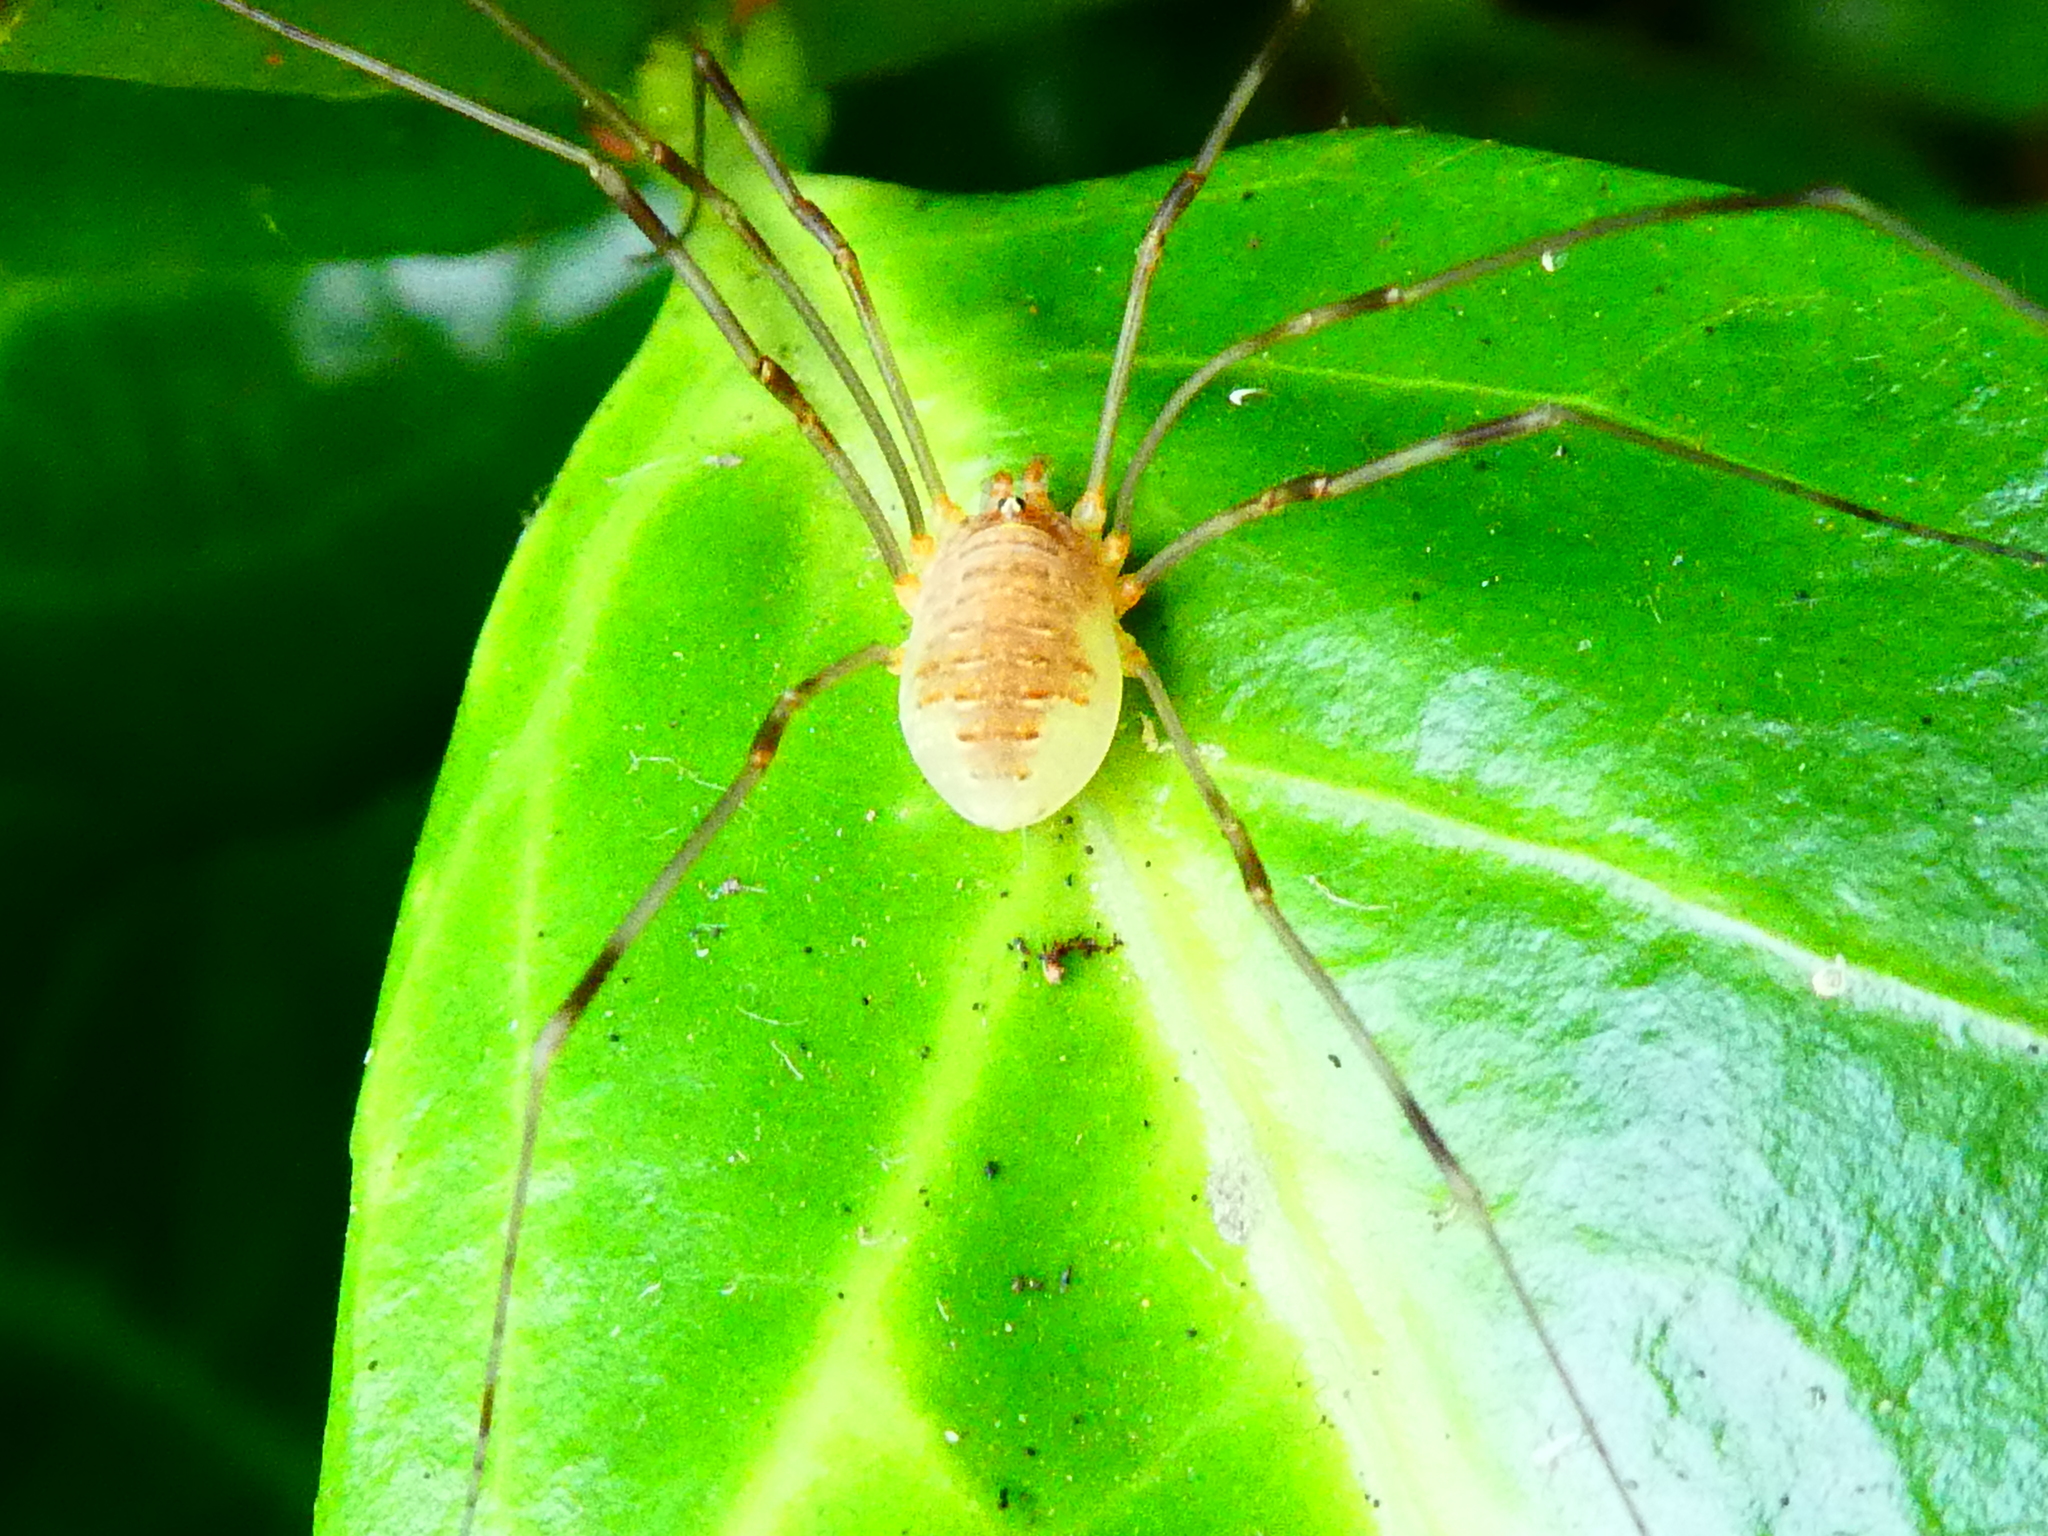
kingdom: Animalia
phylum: Arthropoda
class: Arachnida
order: Opiliones
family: Phalangiidae
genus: Opilio
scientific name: Opilio canestrinii
